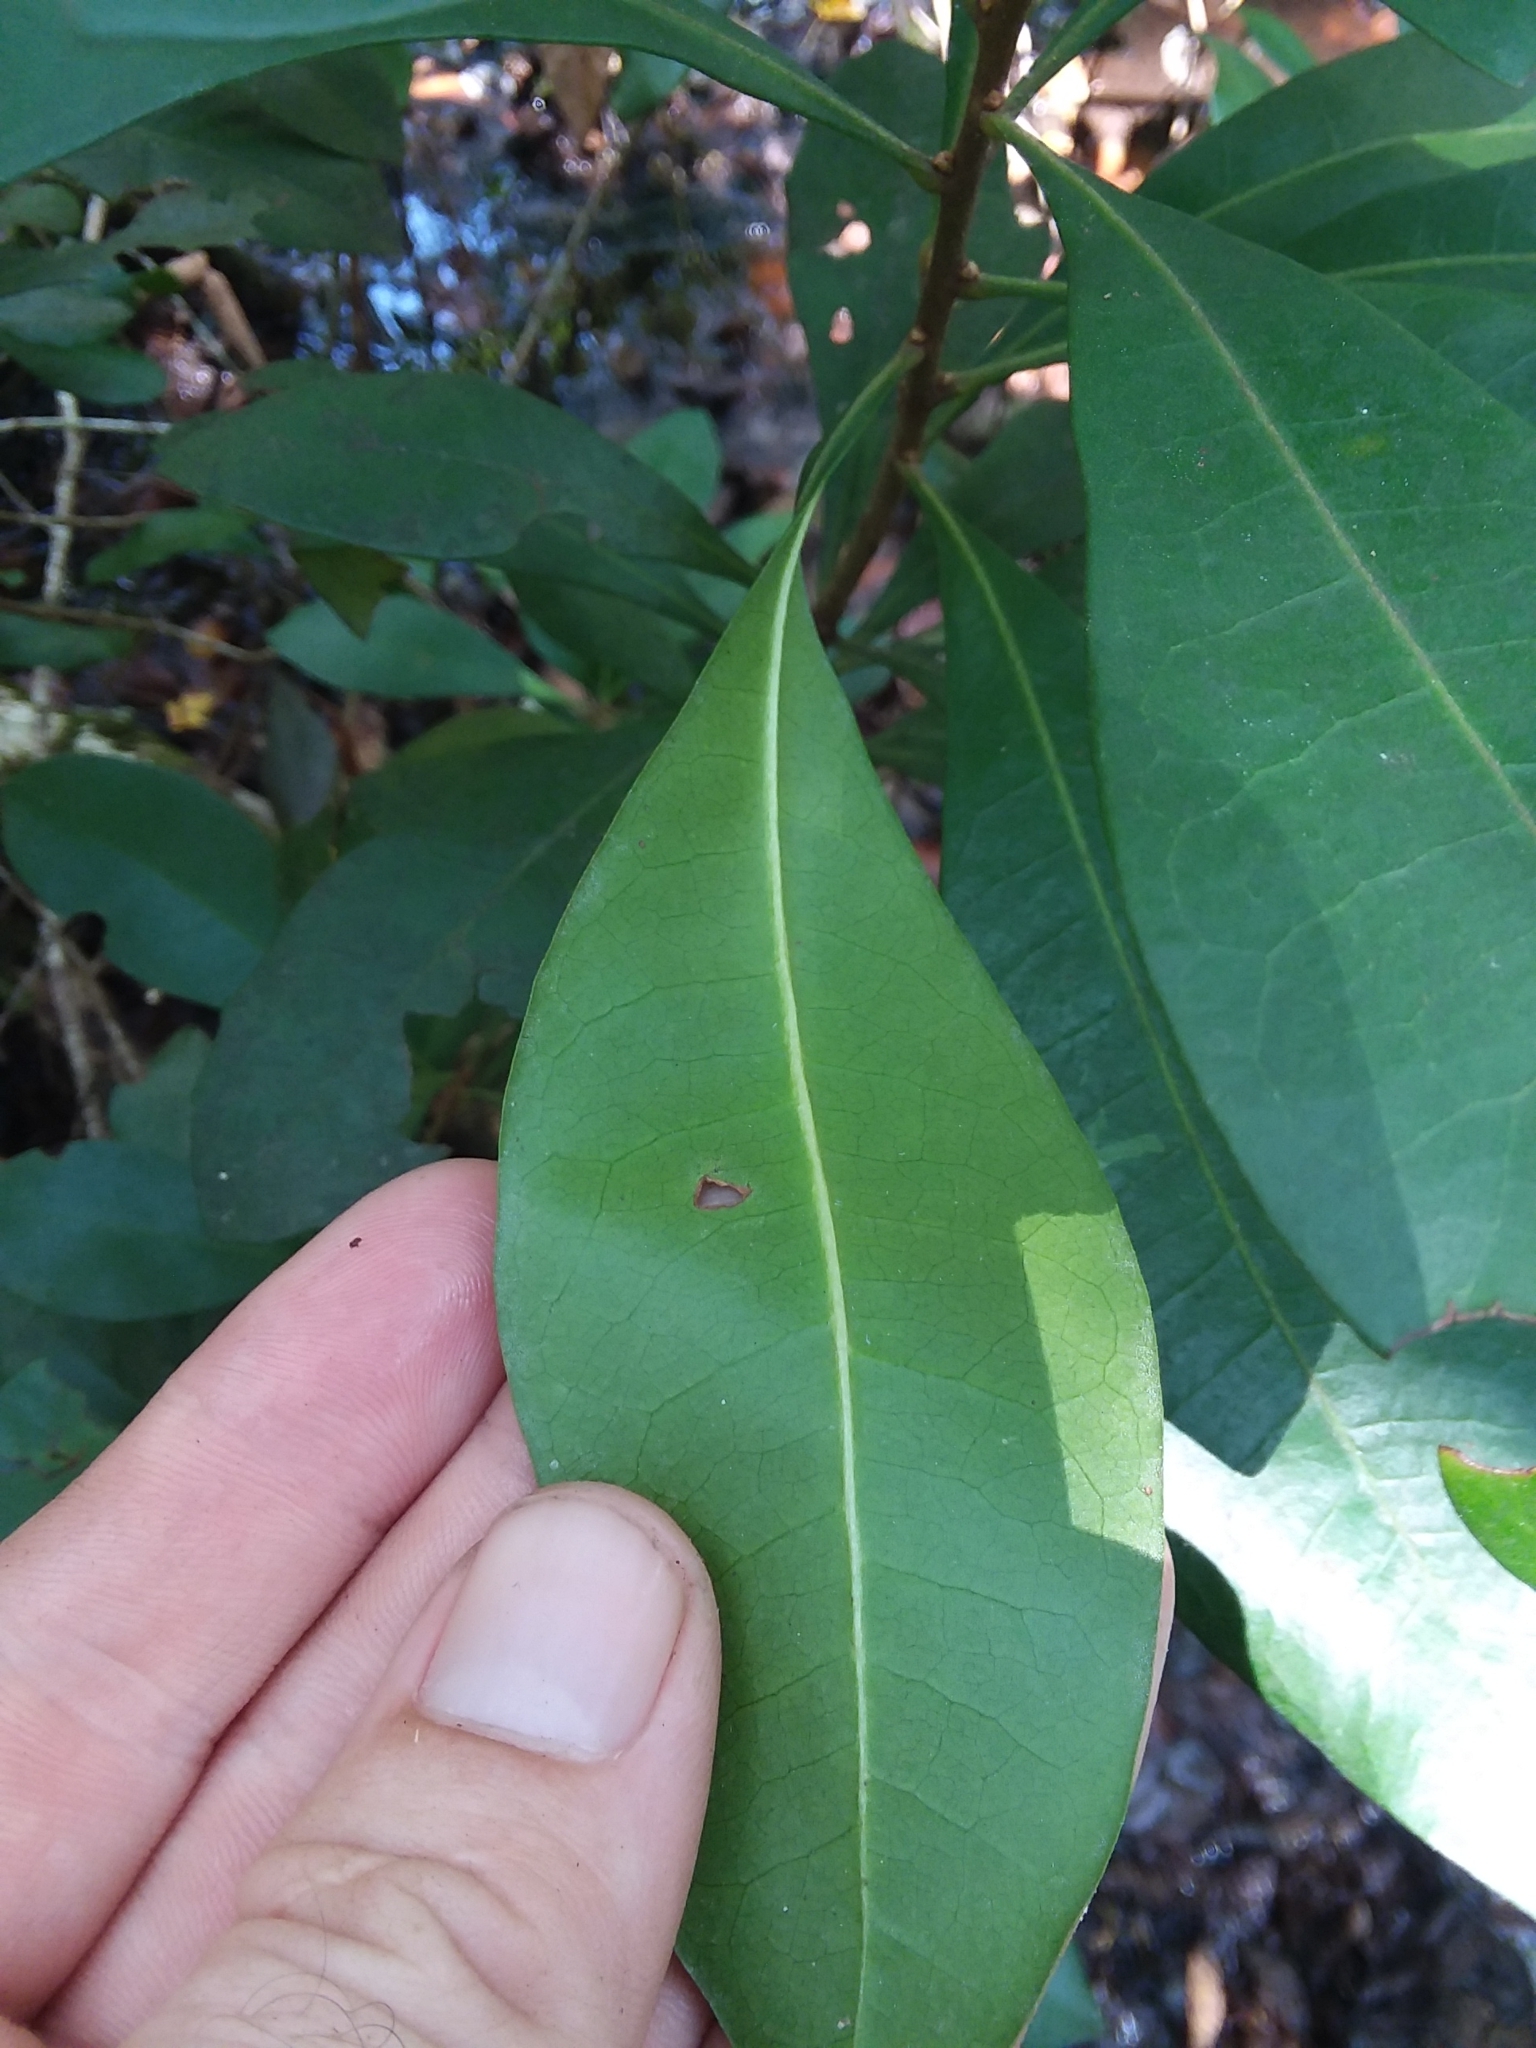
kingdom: Plantae
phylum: Tracheophyta
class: Magnoliopsida
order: Fagales
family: Myricaceae
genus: Morella
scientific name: Morella inodora
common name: Candle-berry
